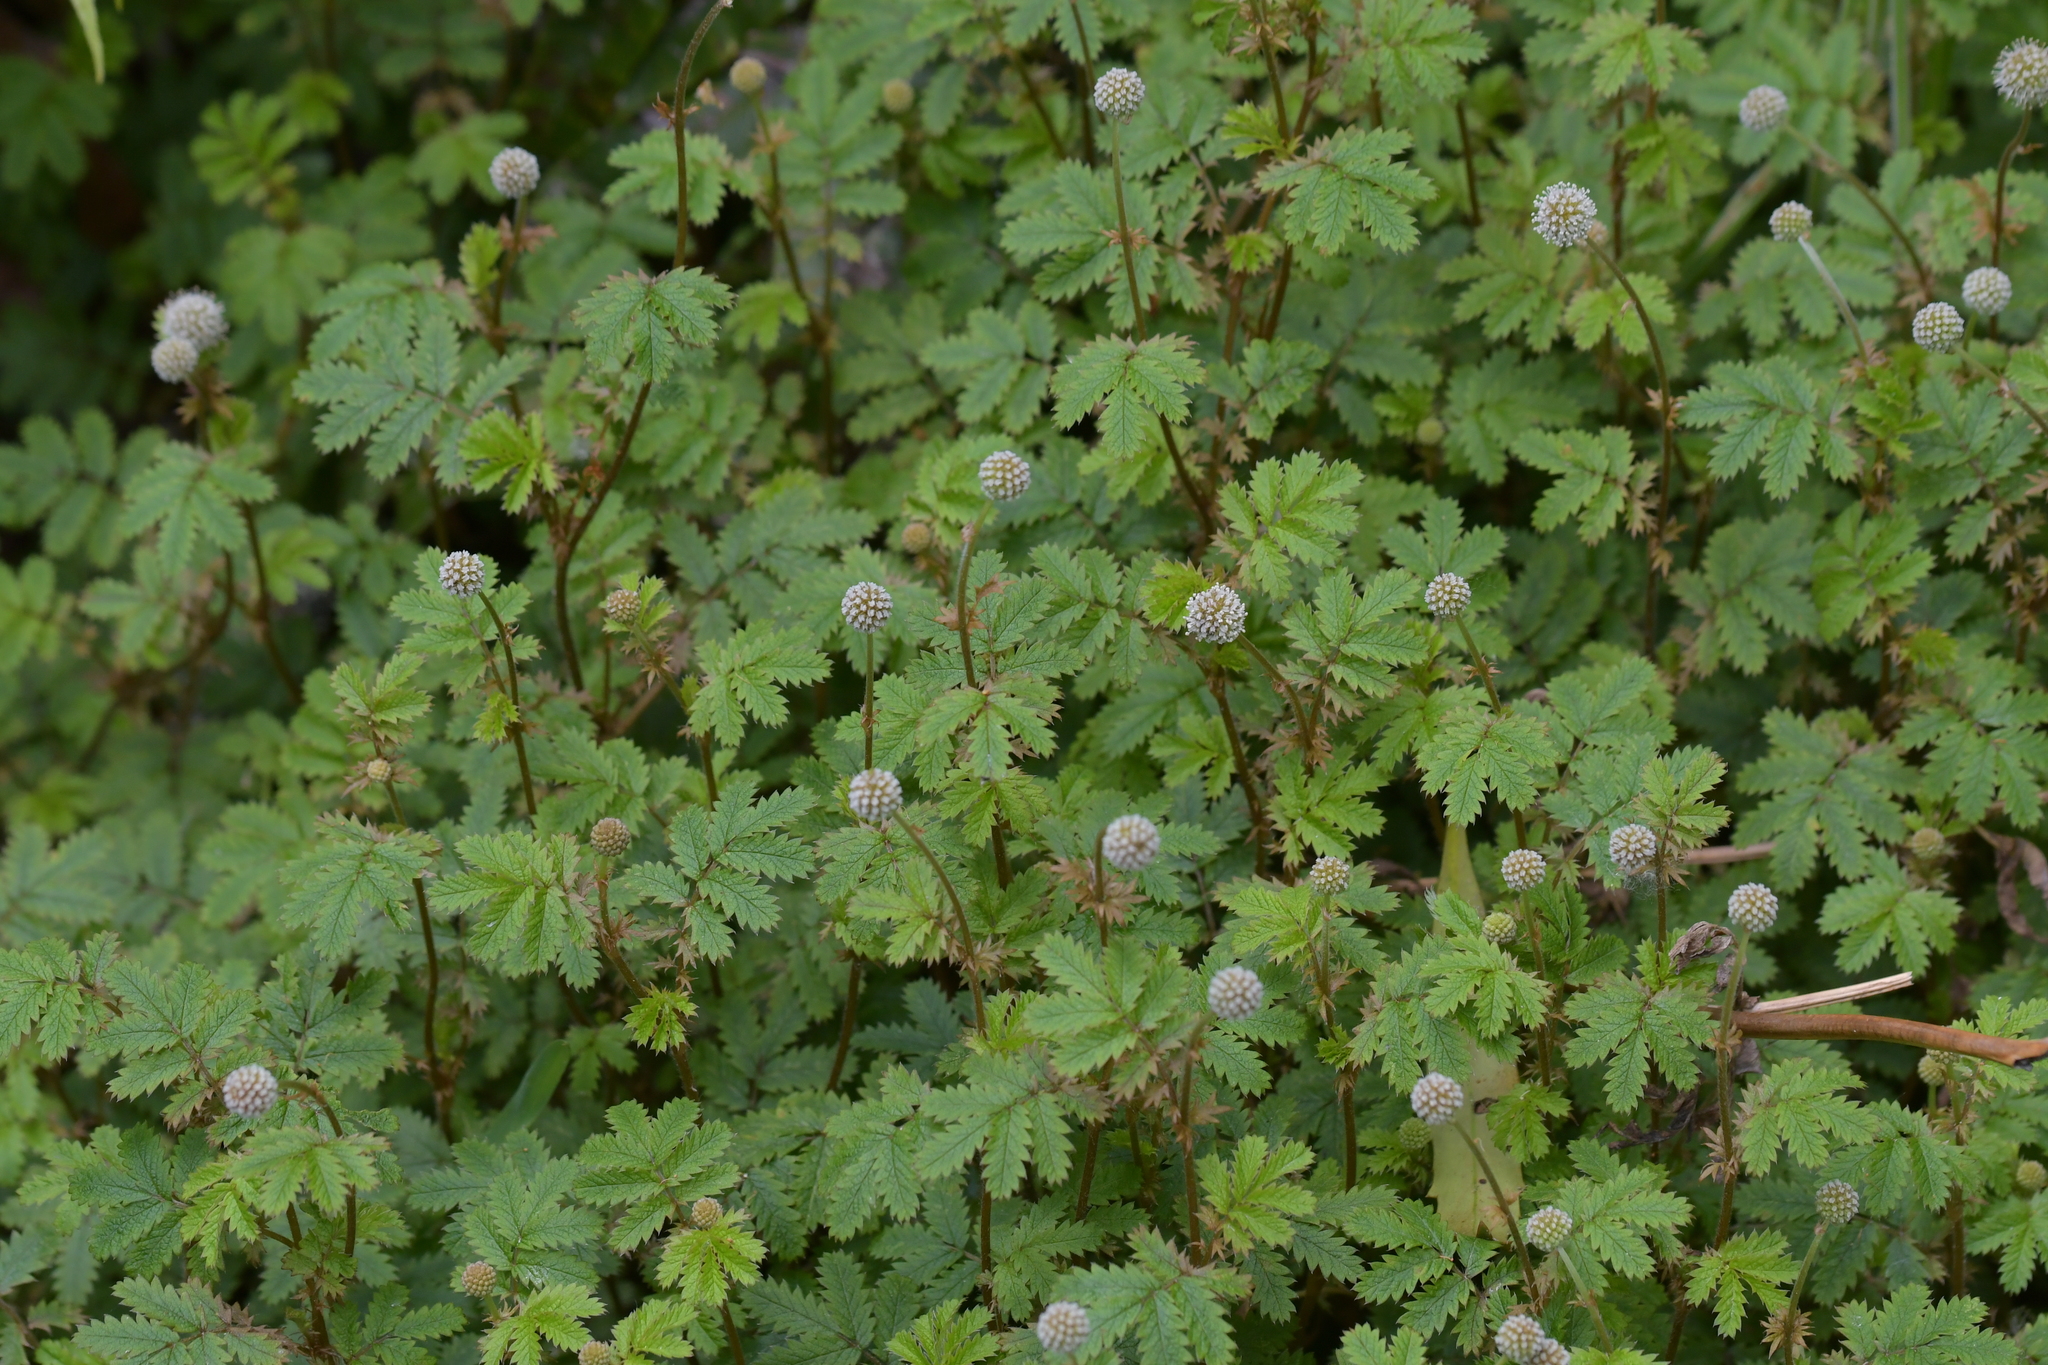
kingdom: Plantae
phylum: Tracheophyta
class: Magnoliopsida
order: Rosales
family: Rosaceae
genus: Acaena
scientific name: Acaena anserinifolia
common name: Bronze pirri-pirri-bur
